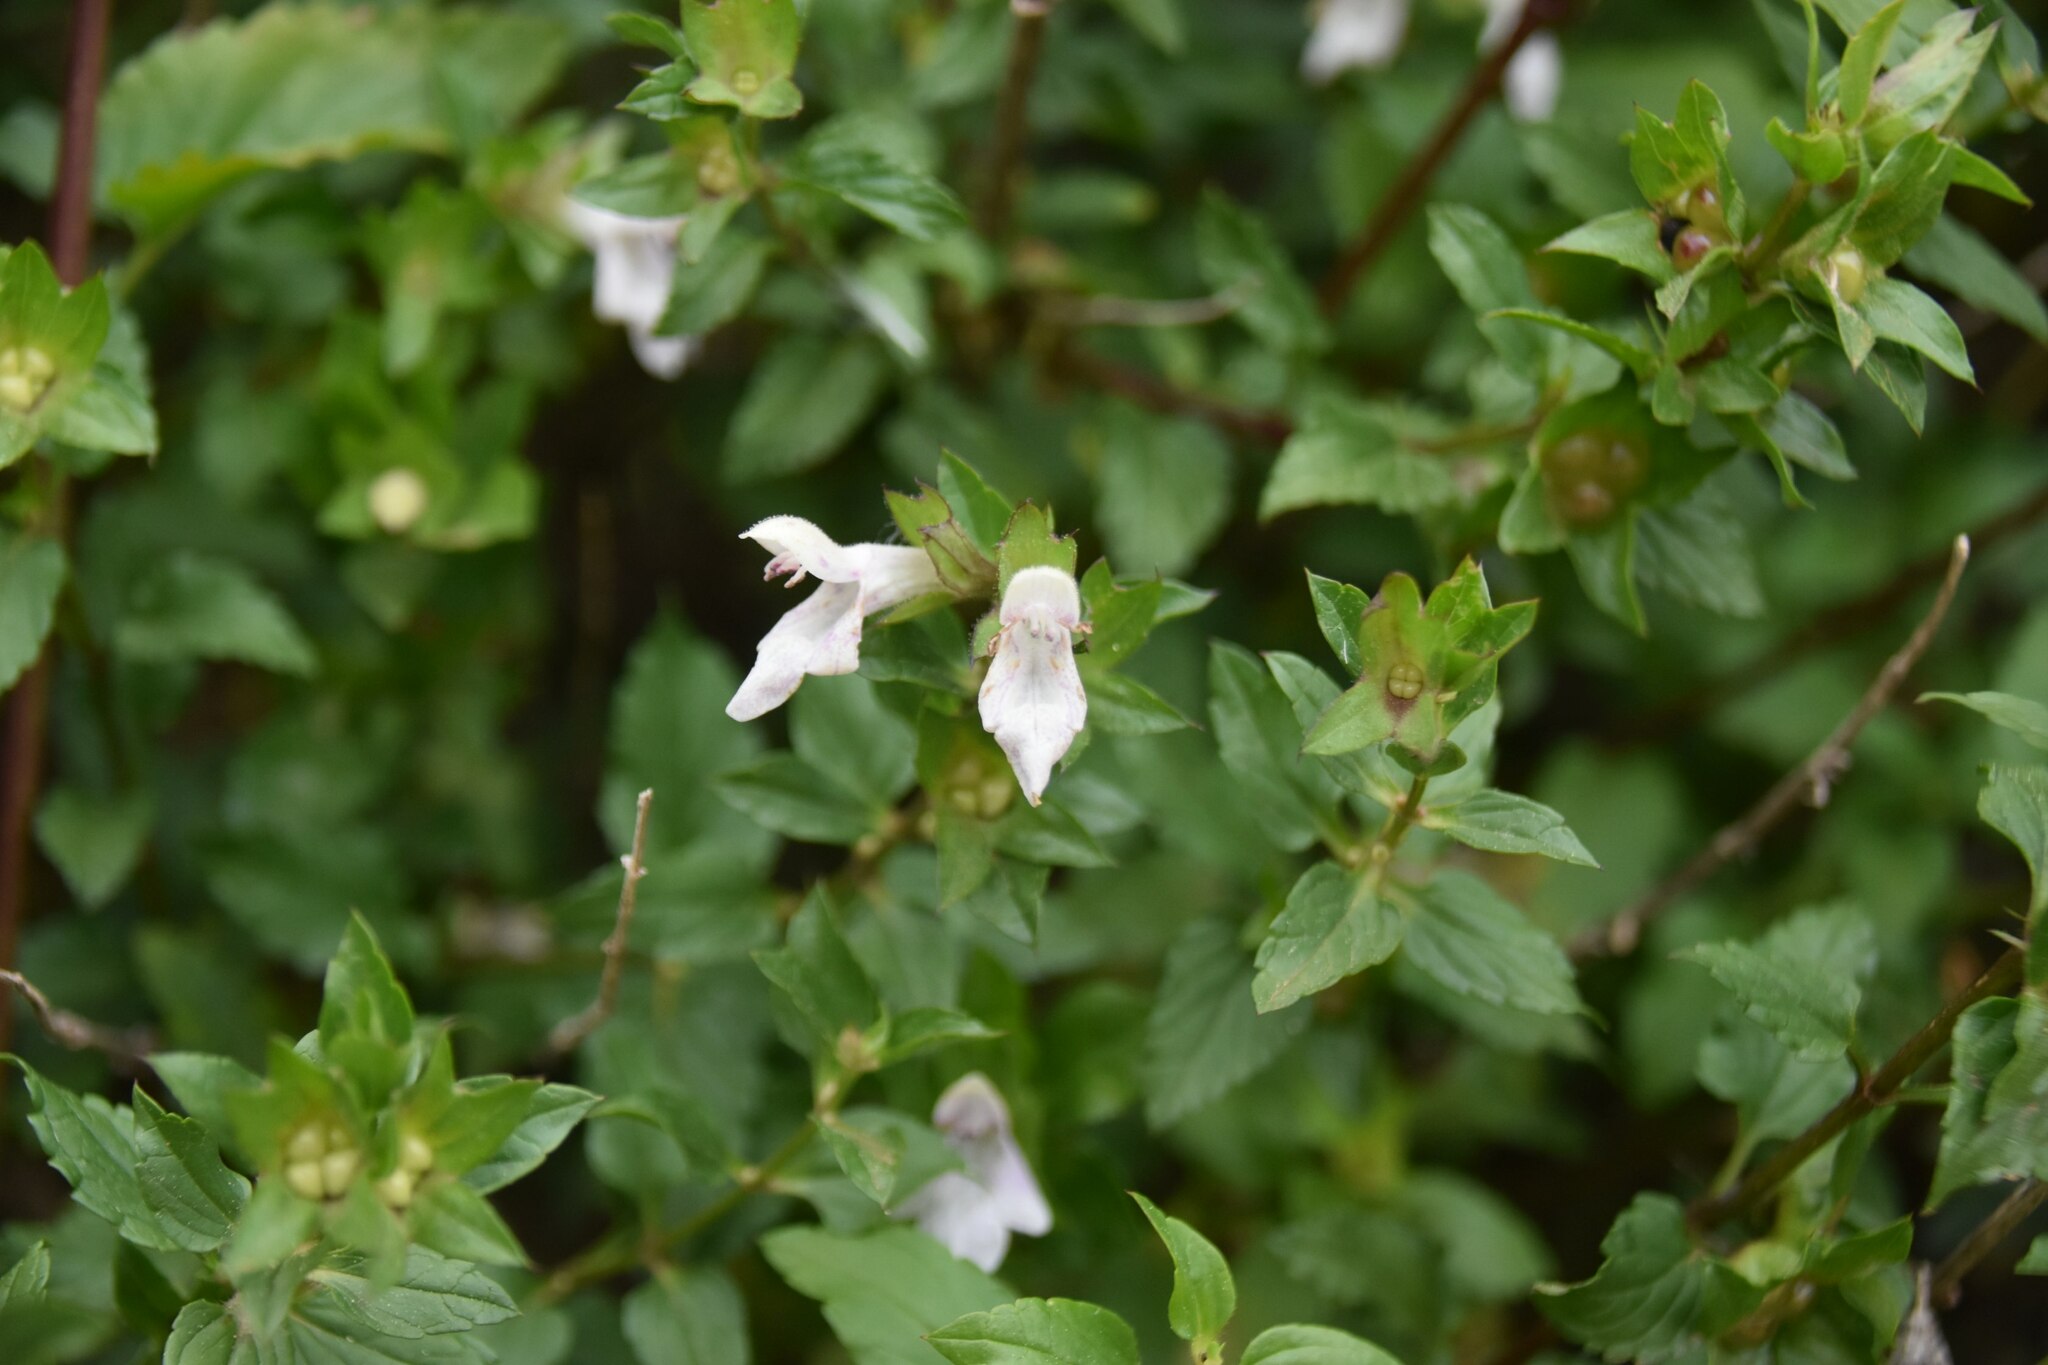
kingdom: Plantae
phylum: Tracheophyta
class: Magnoliopsida
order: Lamiales
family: Lamiaceae
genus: Prasium
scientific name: Prasium majus
